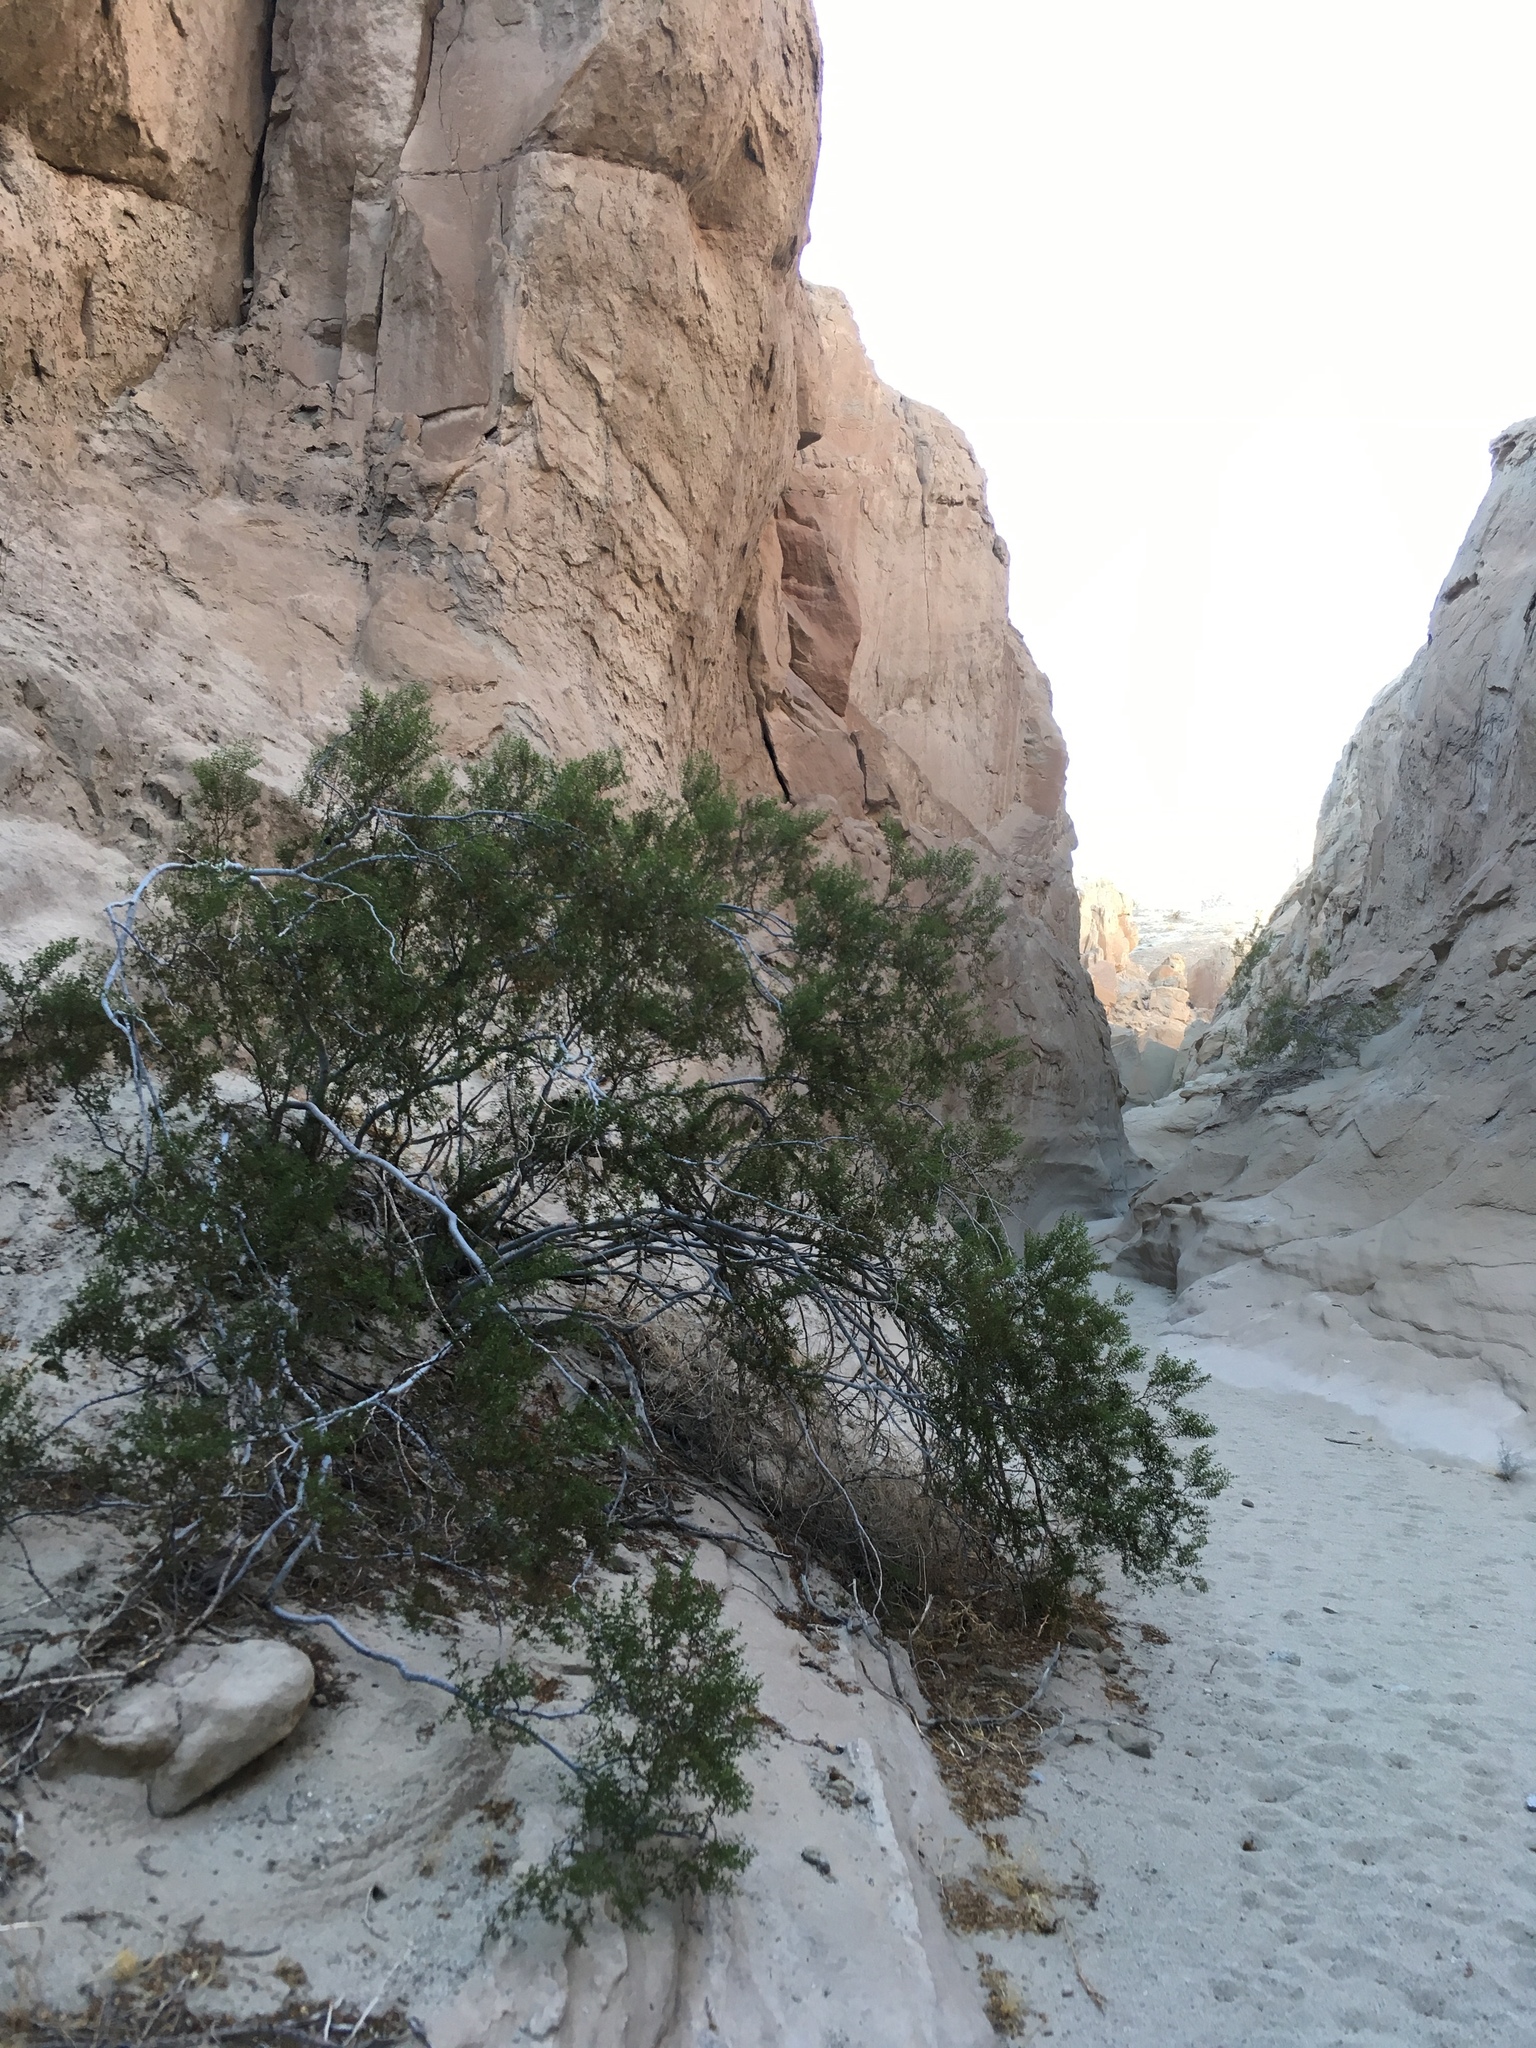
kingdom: Plantae
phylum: Tracheophyta
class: Magnoliopsida
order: Zygophyllales
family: Zygophyllaceae
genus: Larrea
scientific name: Larrea tridentata
